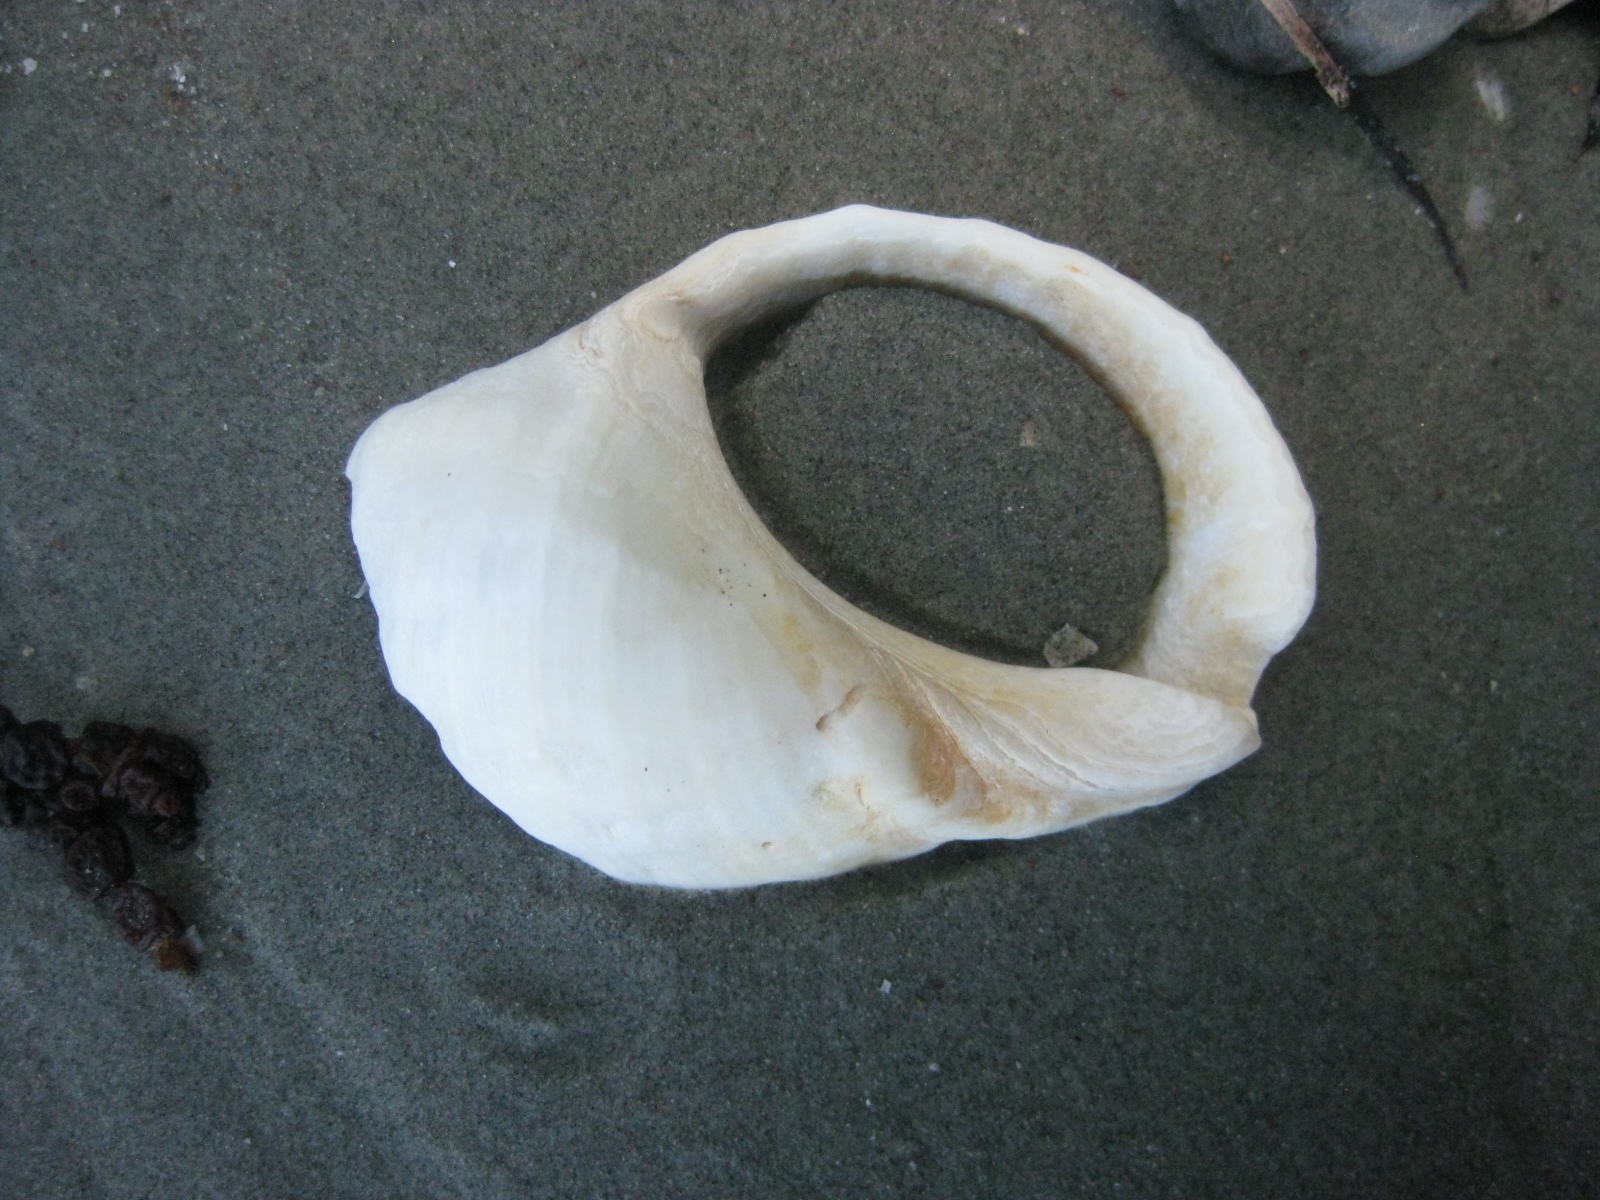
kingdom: Animalia
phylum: Mollusca
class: Gastropoda
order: Neogastropoda
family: Muricidae
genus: Dicathais
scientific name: Dicathais orbita
